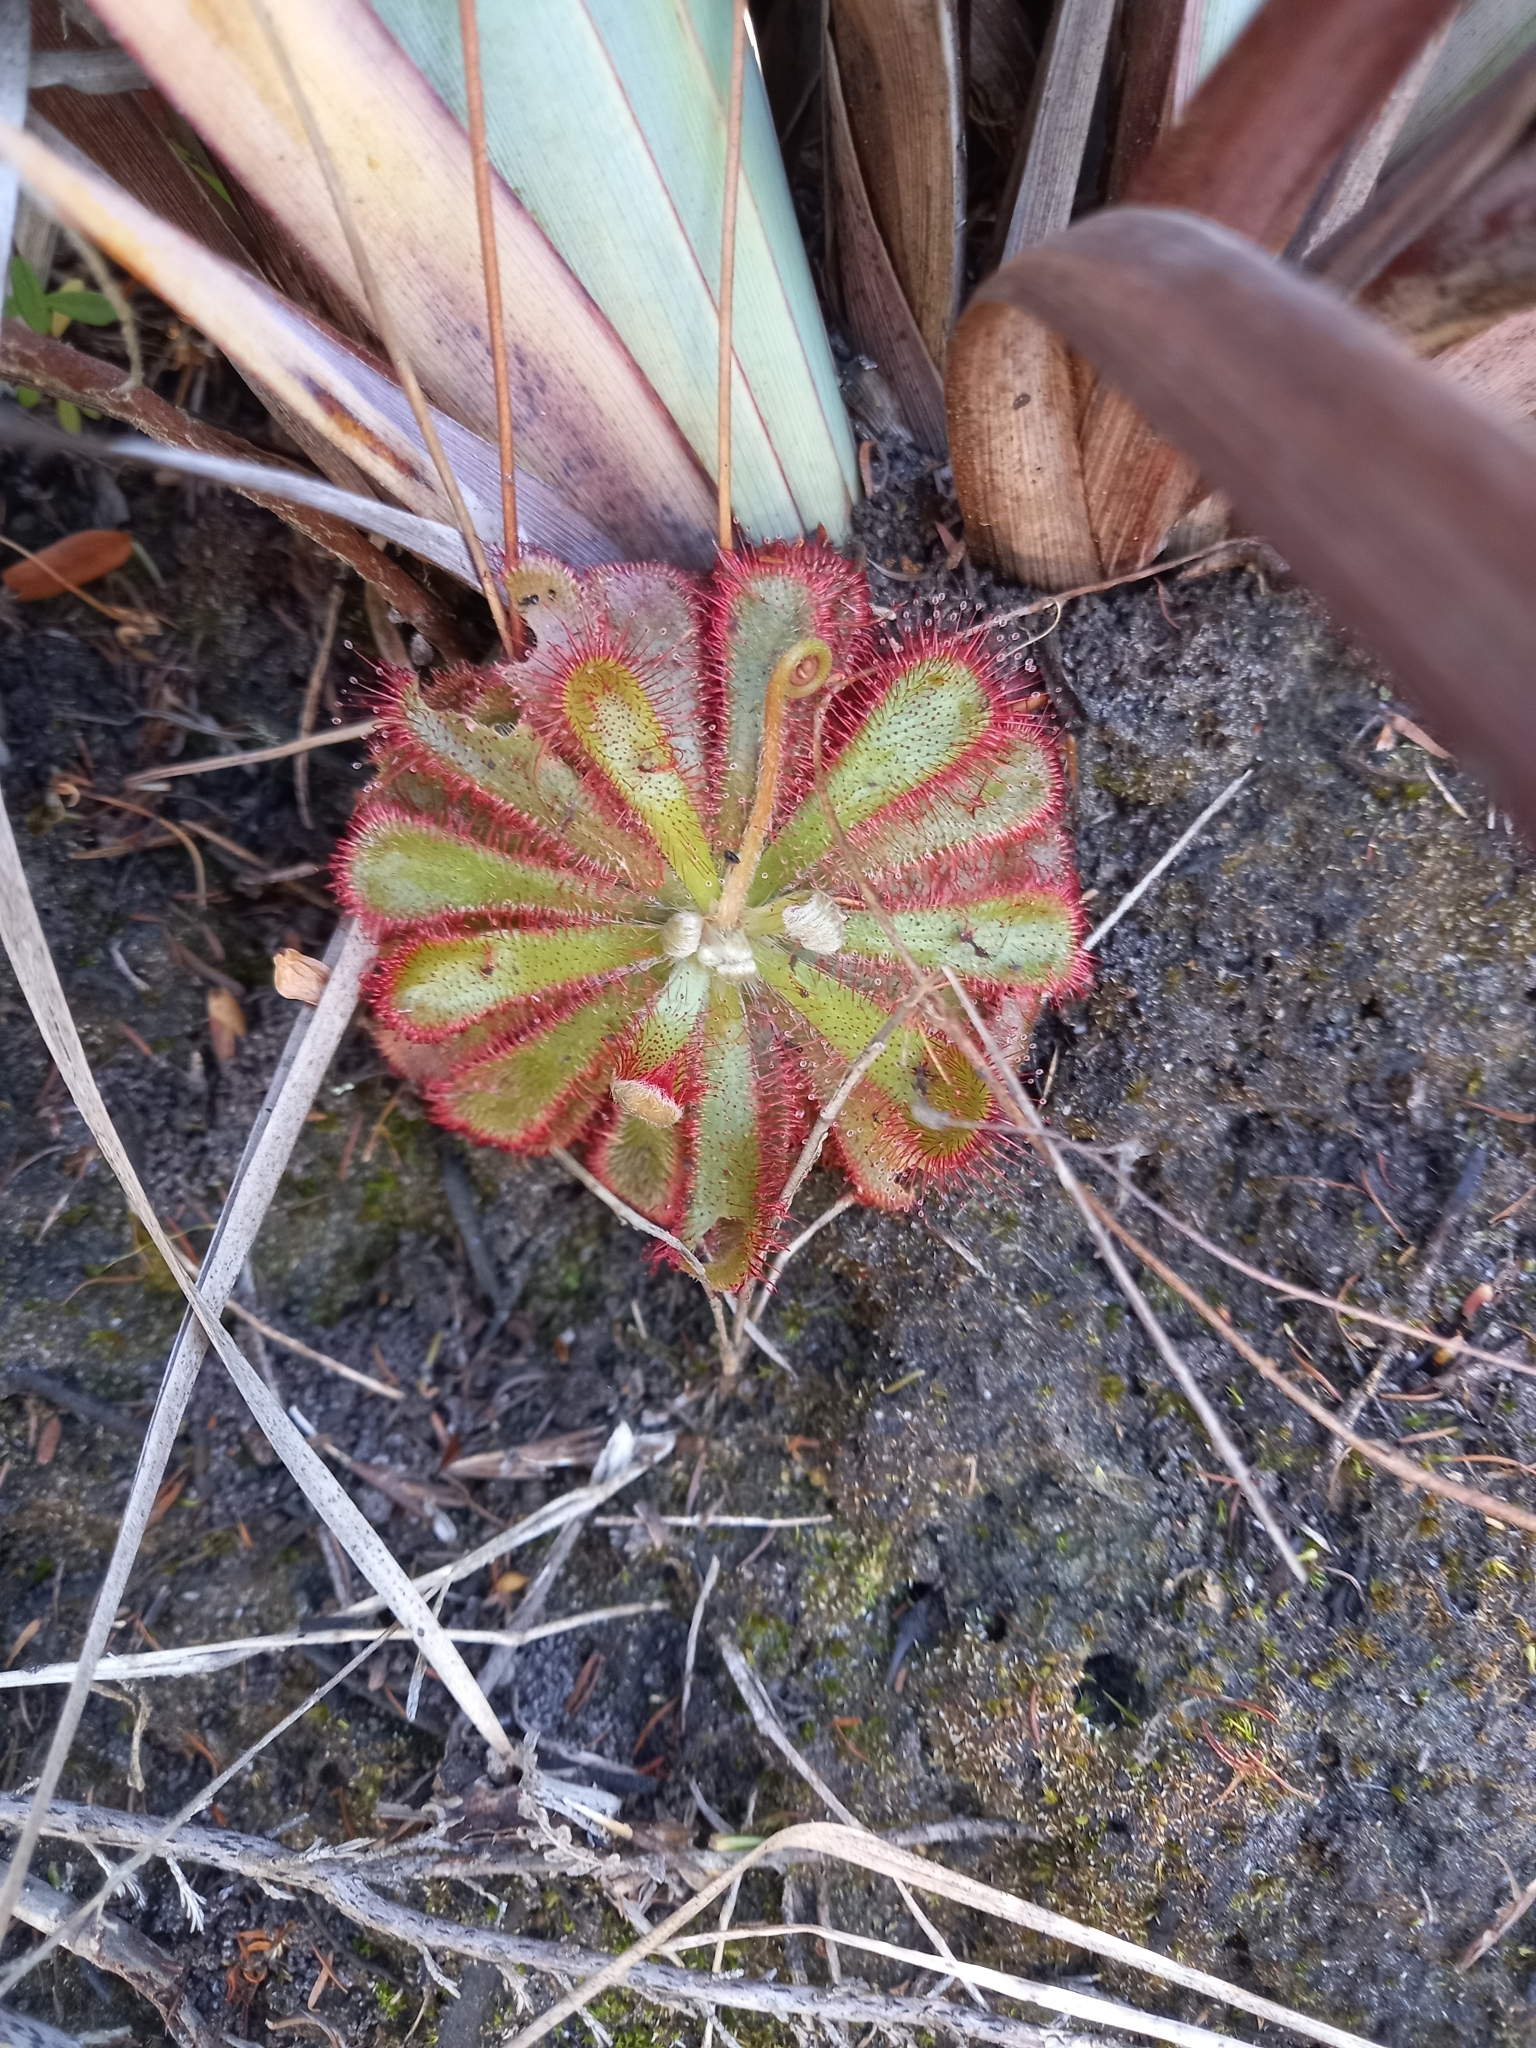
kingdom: Plantae
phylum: Tracheophyta
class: Magnoliopsida
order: Caryophyllales
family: Droseraceae
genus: Drosera
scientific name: Drosera aliciae
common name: Alice sundew
